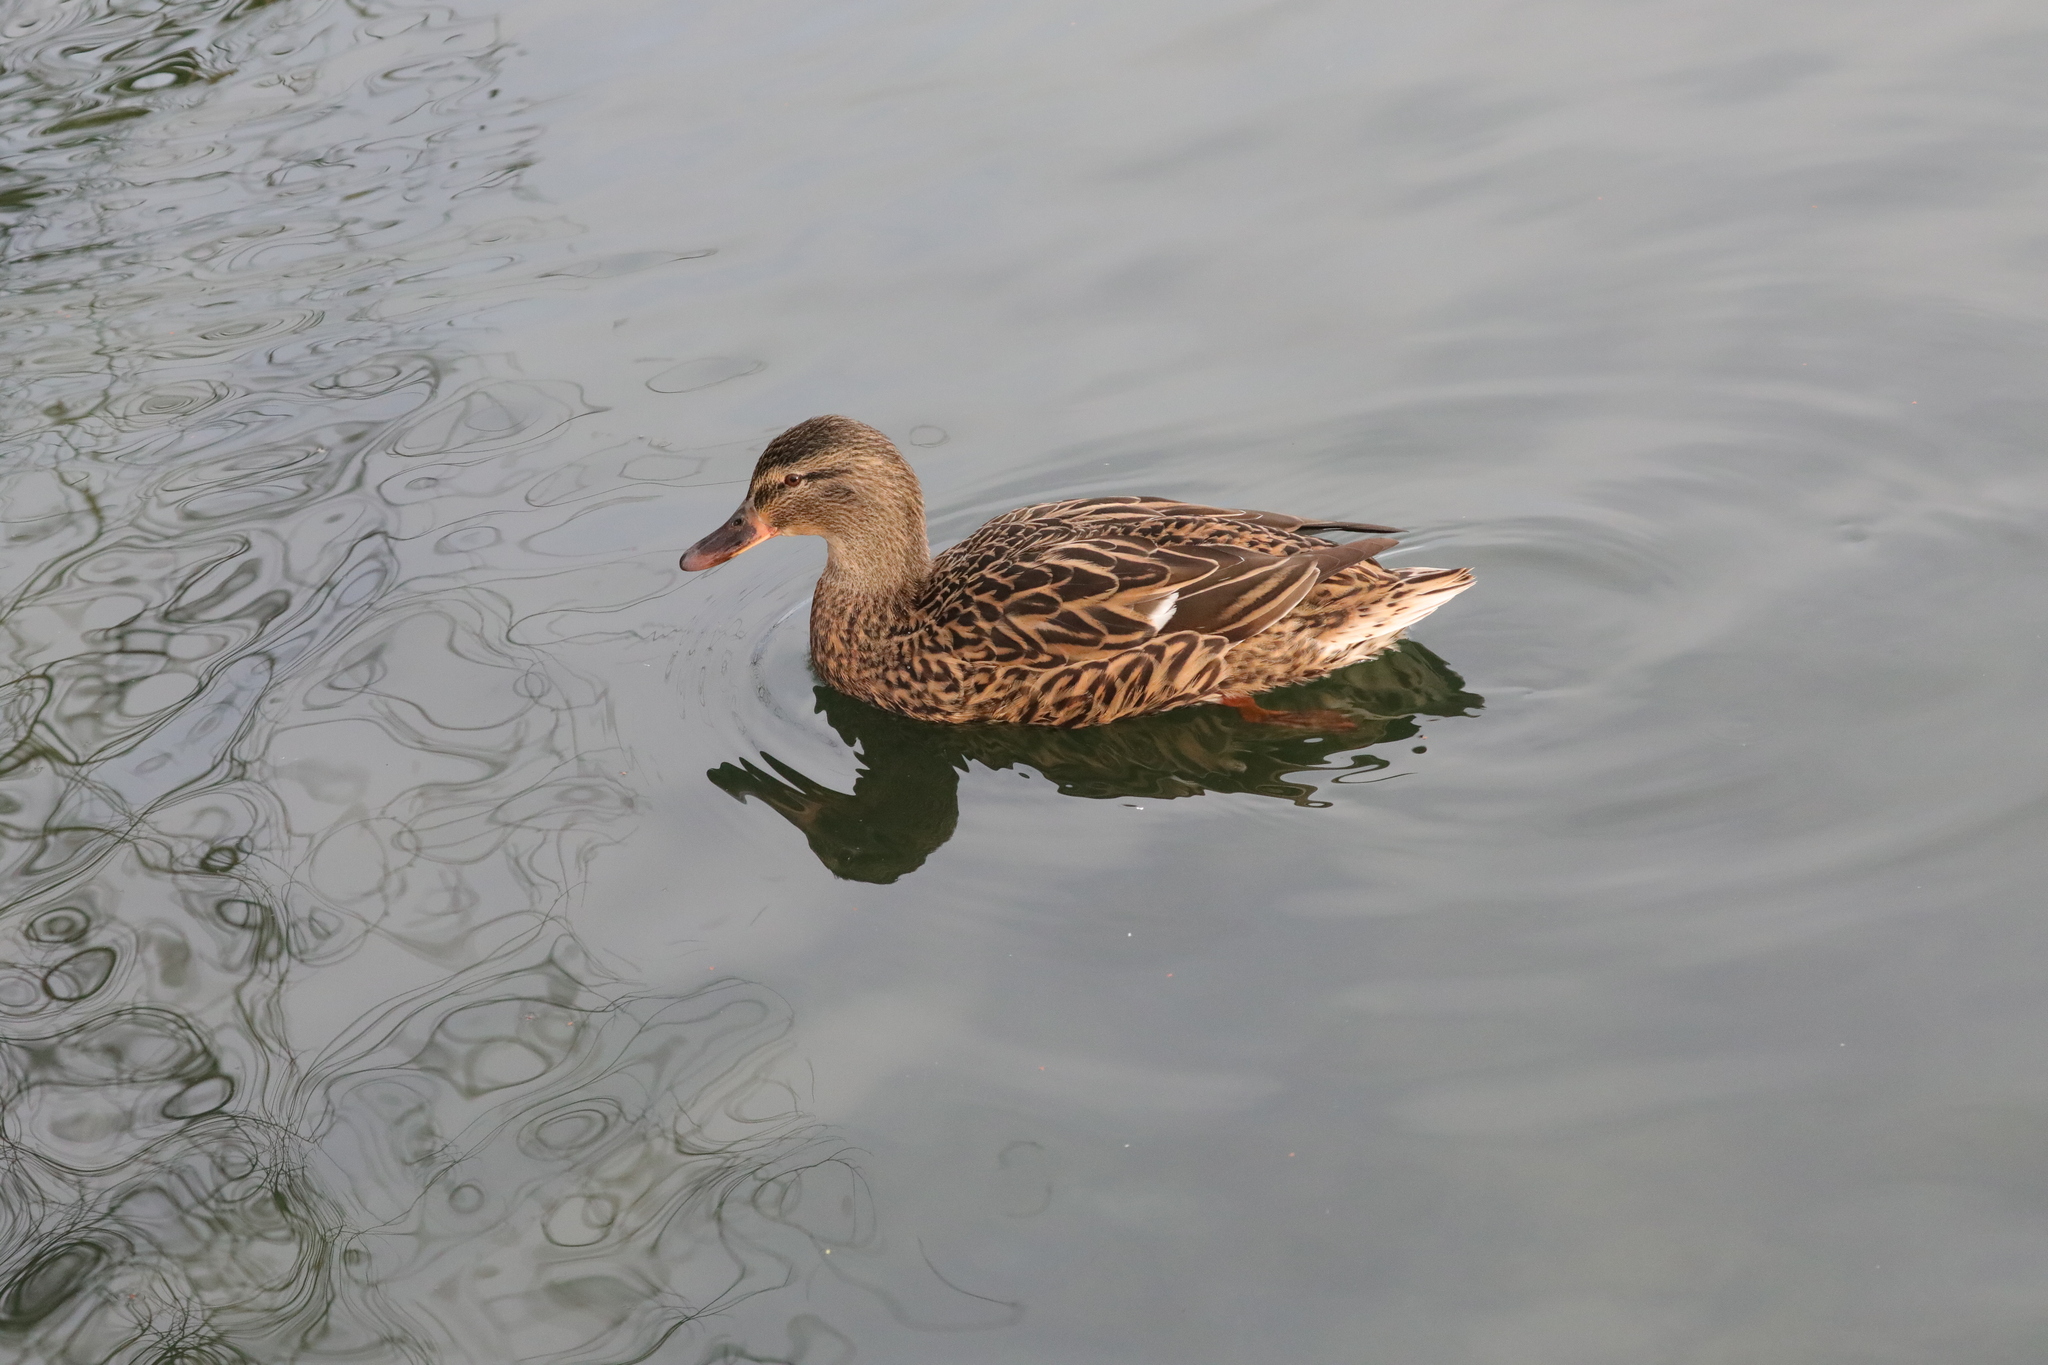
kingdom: Animalia
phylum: Chordata
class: Aves
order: Anseriformes
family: Anatidae
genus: Anas
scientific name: Anas platyrhynchos
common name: Mallard
